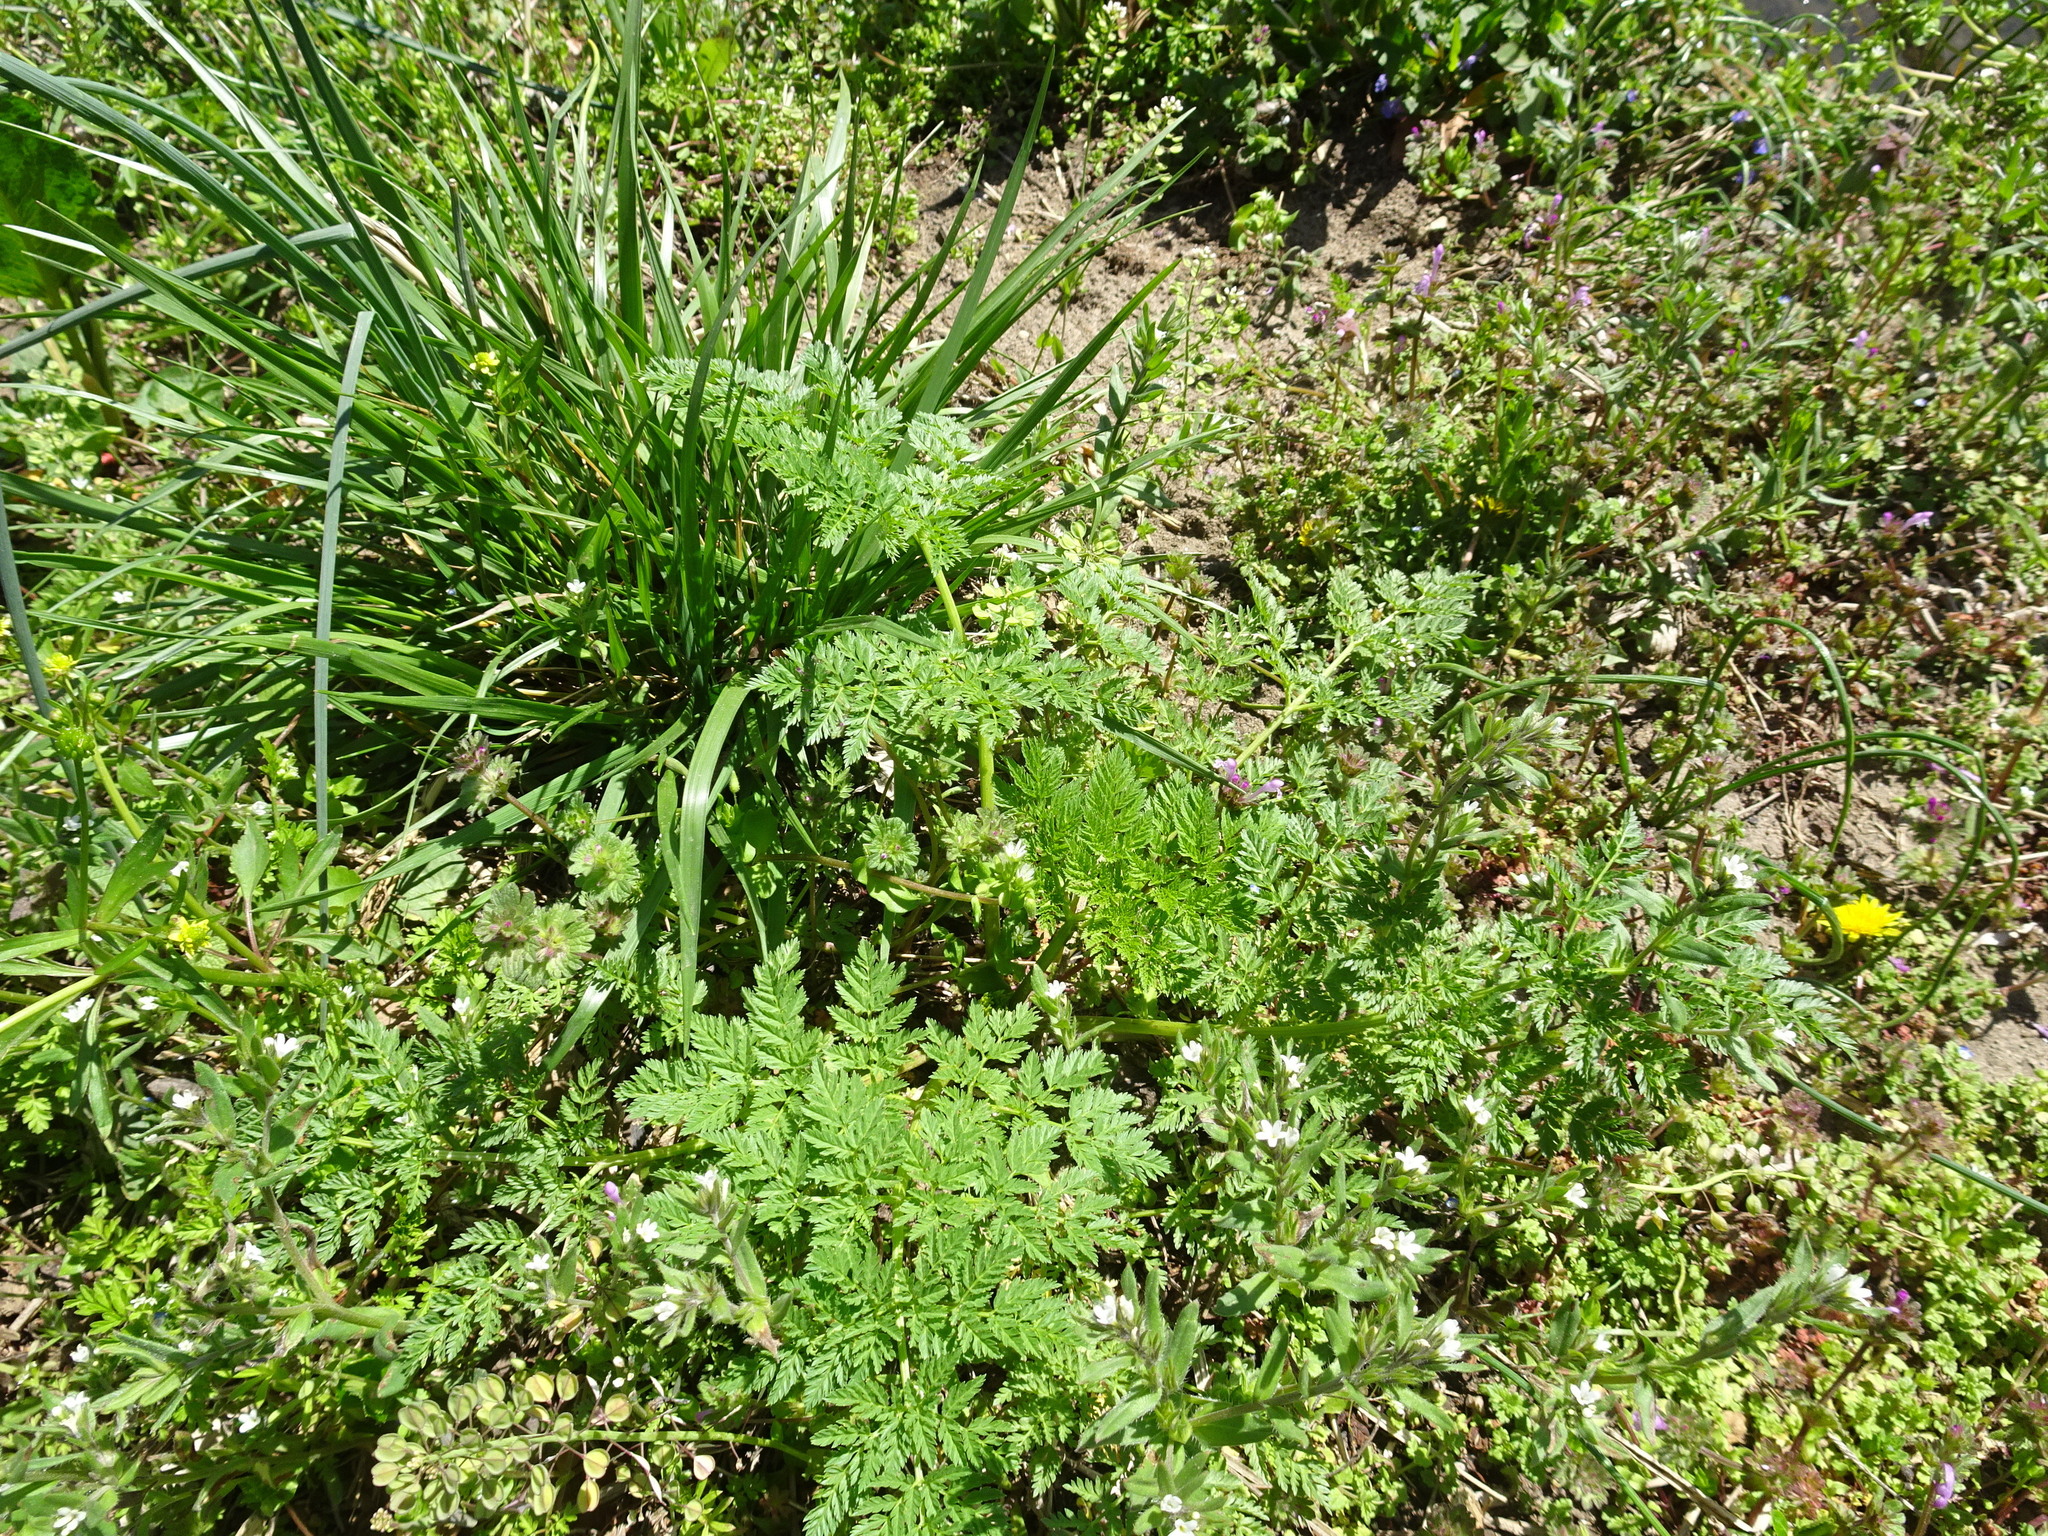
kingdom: Plantae
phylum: Tracheophyta
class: Magnoliopsida
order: Apiales
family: Apiaceae
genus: Conium
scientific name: Conium maculatum
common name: Hemlock
